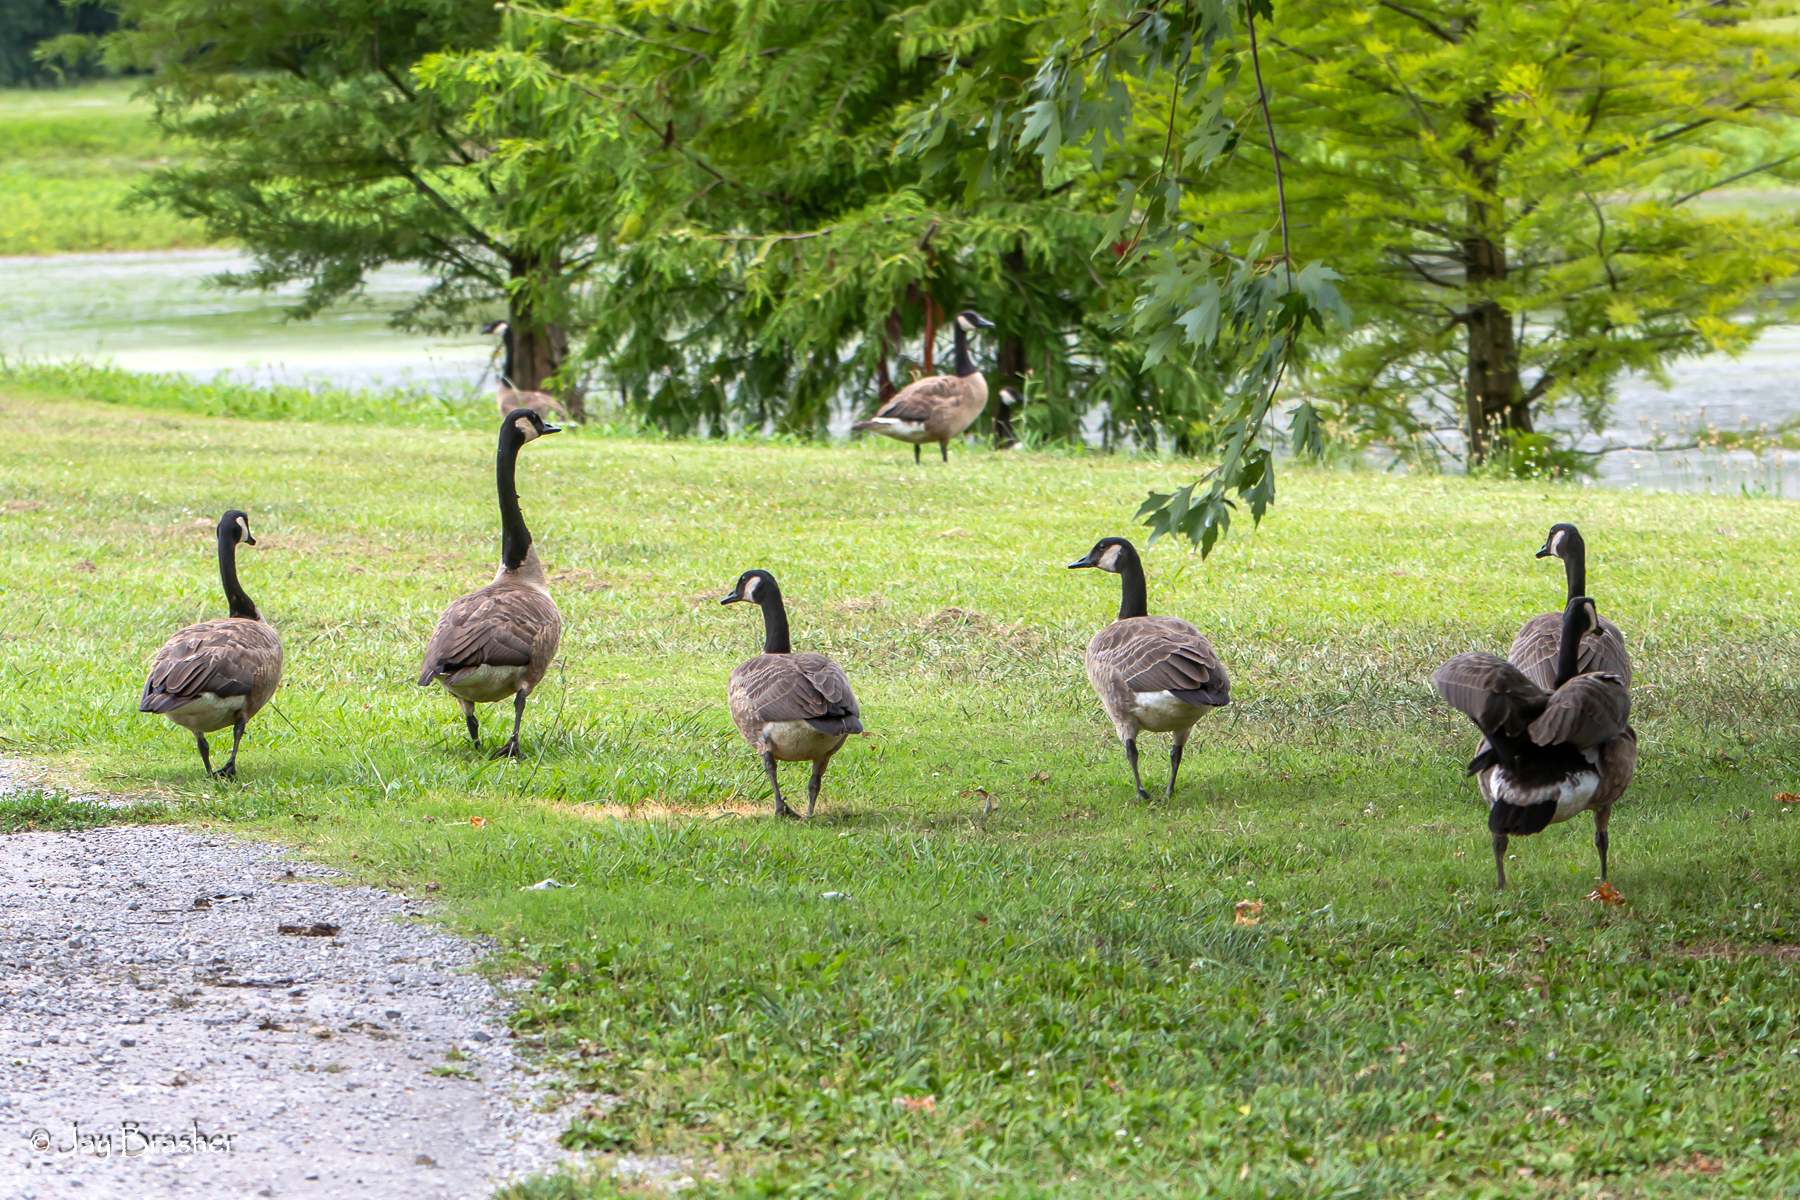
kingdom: Animalia
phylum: Chordata
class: Aves
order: Anseriformes
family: Anatidae
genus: Branta
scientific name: Branta canadensis
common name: Canada goose
